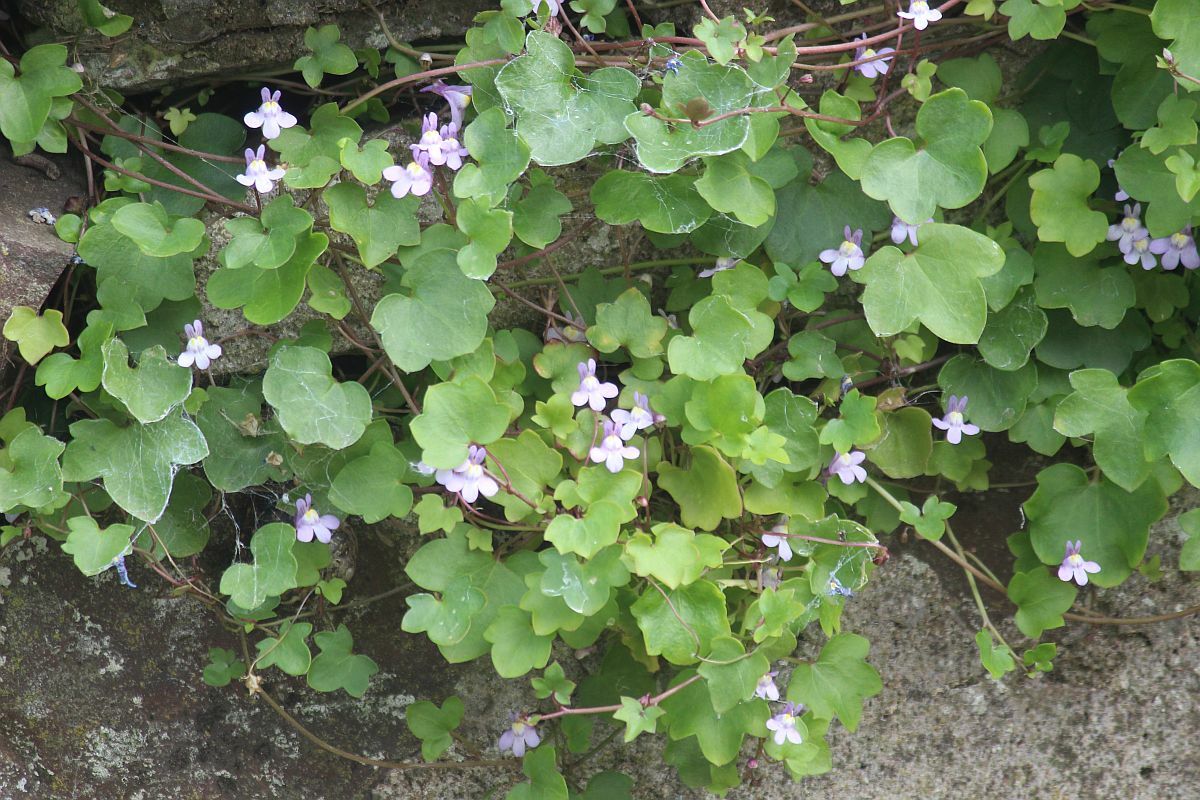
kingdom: Plantae
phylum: Tracheophyta
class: Magnoliopsida
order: Lamiales
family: Plantaginaceae
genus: Cymbalaria
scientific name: Cymbalaria muralis
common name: Ivy-leaved toadflax
